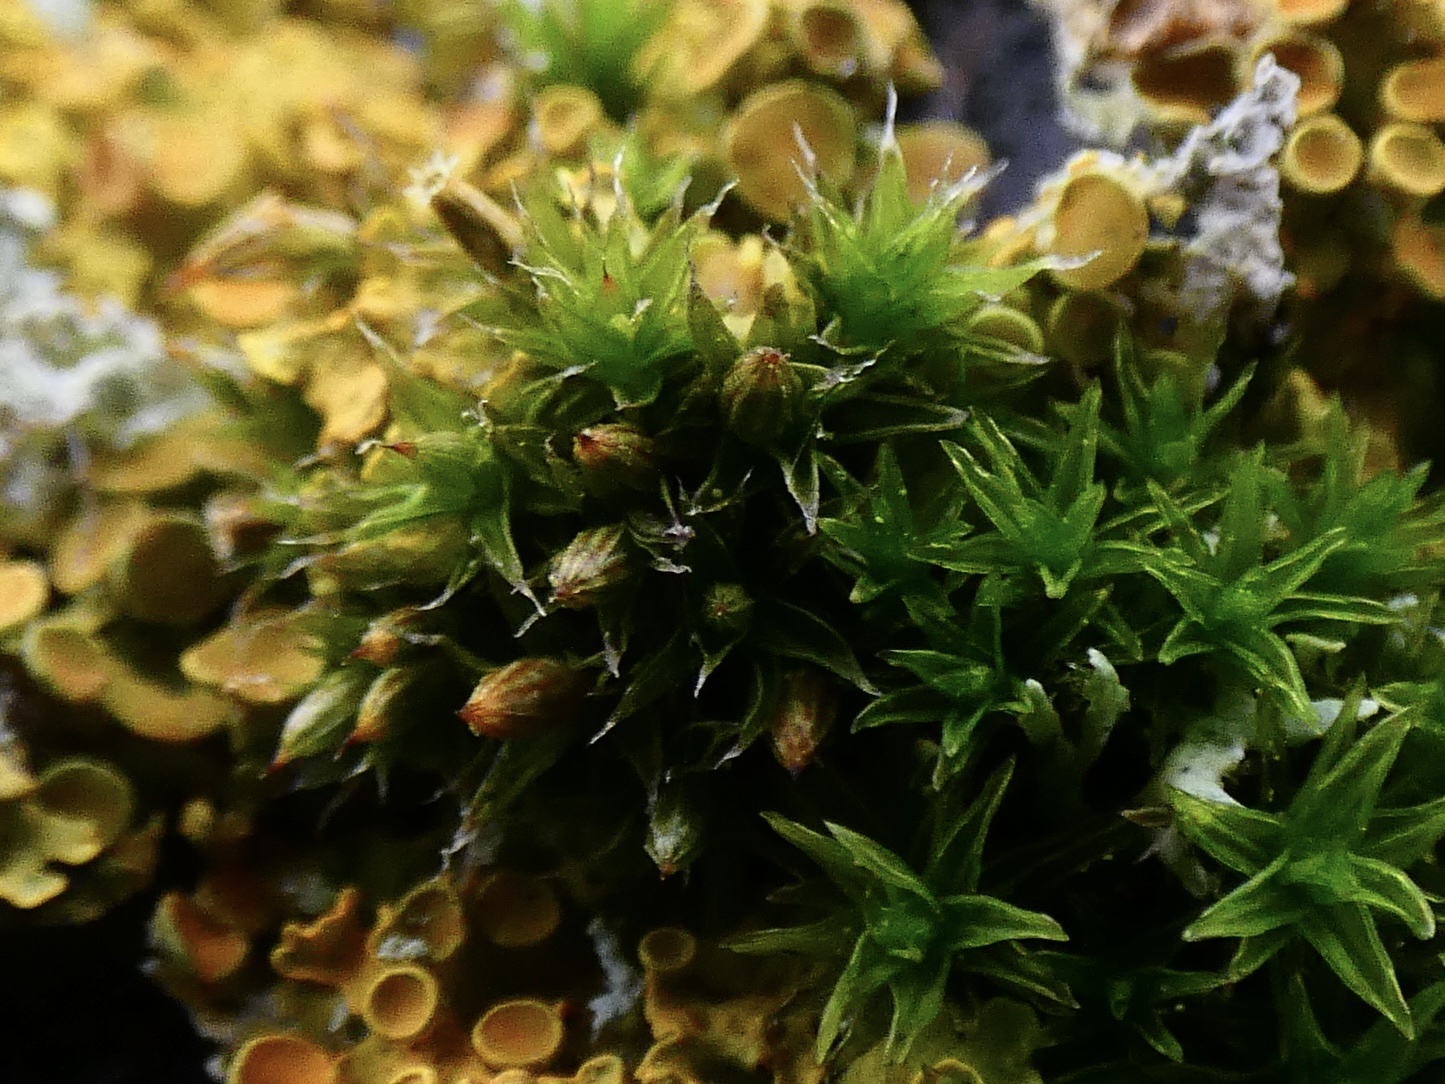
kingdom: Plantae
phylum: Bryophyta
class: Bryopsida
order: Orthotrichales
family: Orthotrichaceae
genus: Orthotrichum
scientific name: Orthotrichum diaphanum
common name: White-tipped bristle-moss
